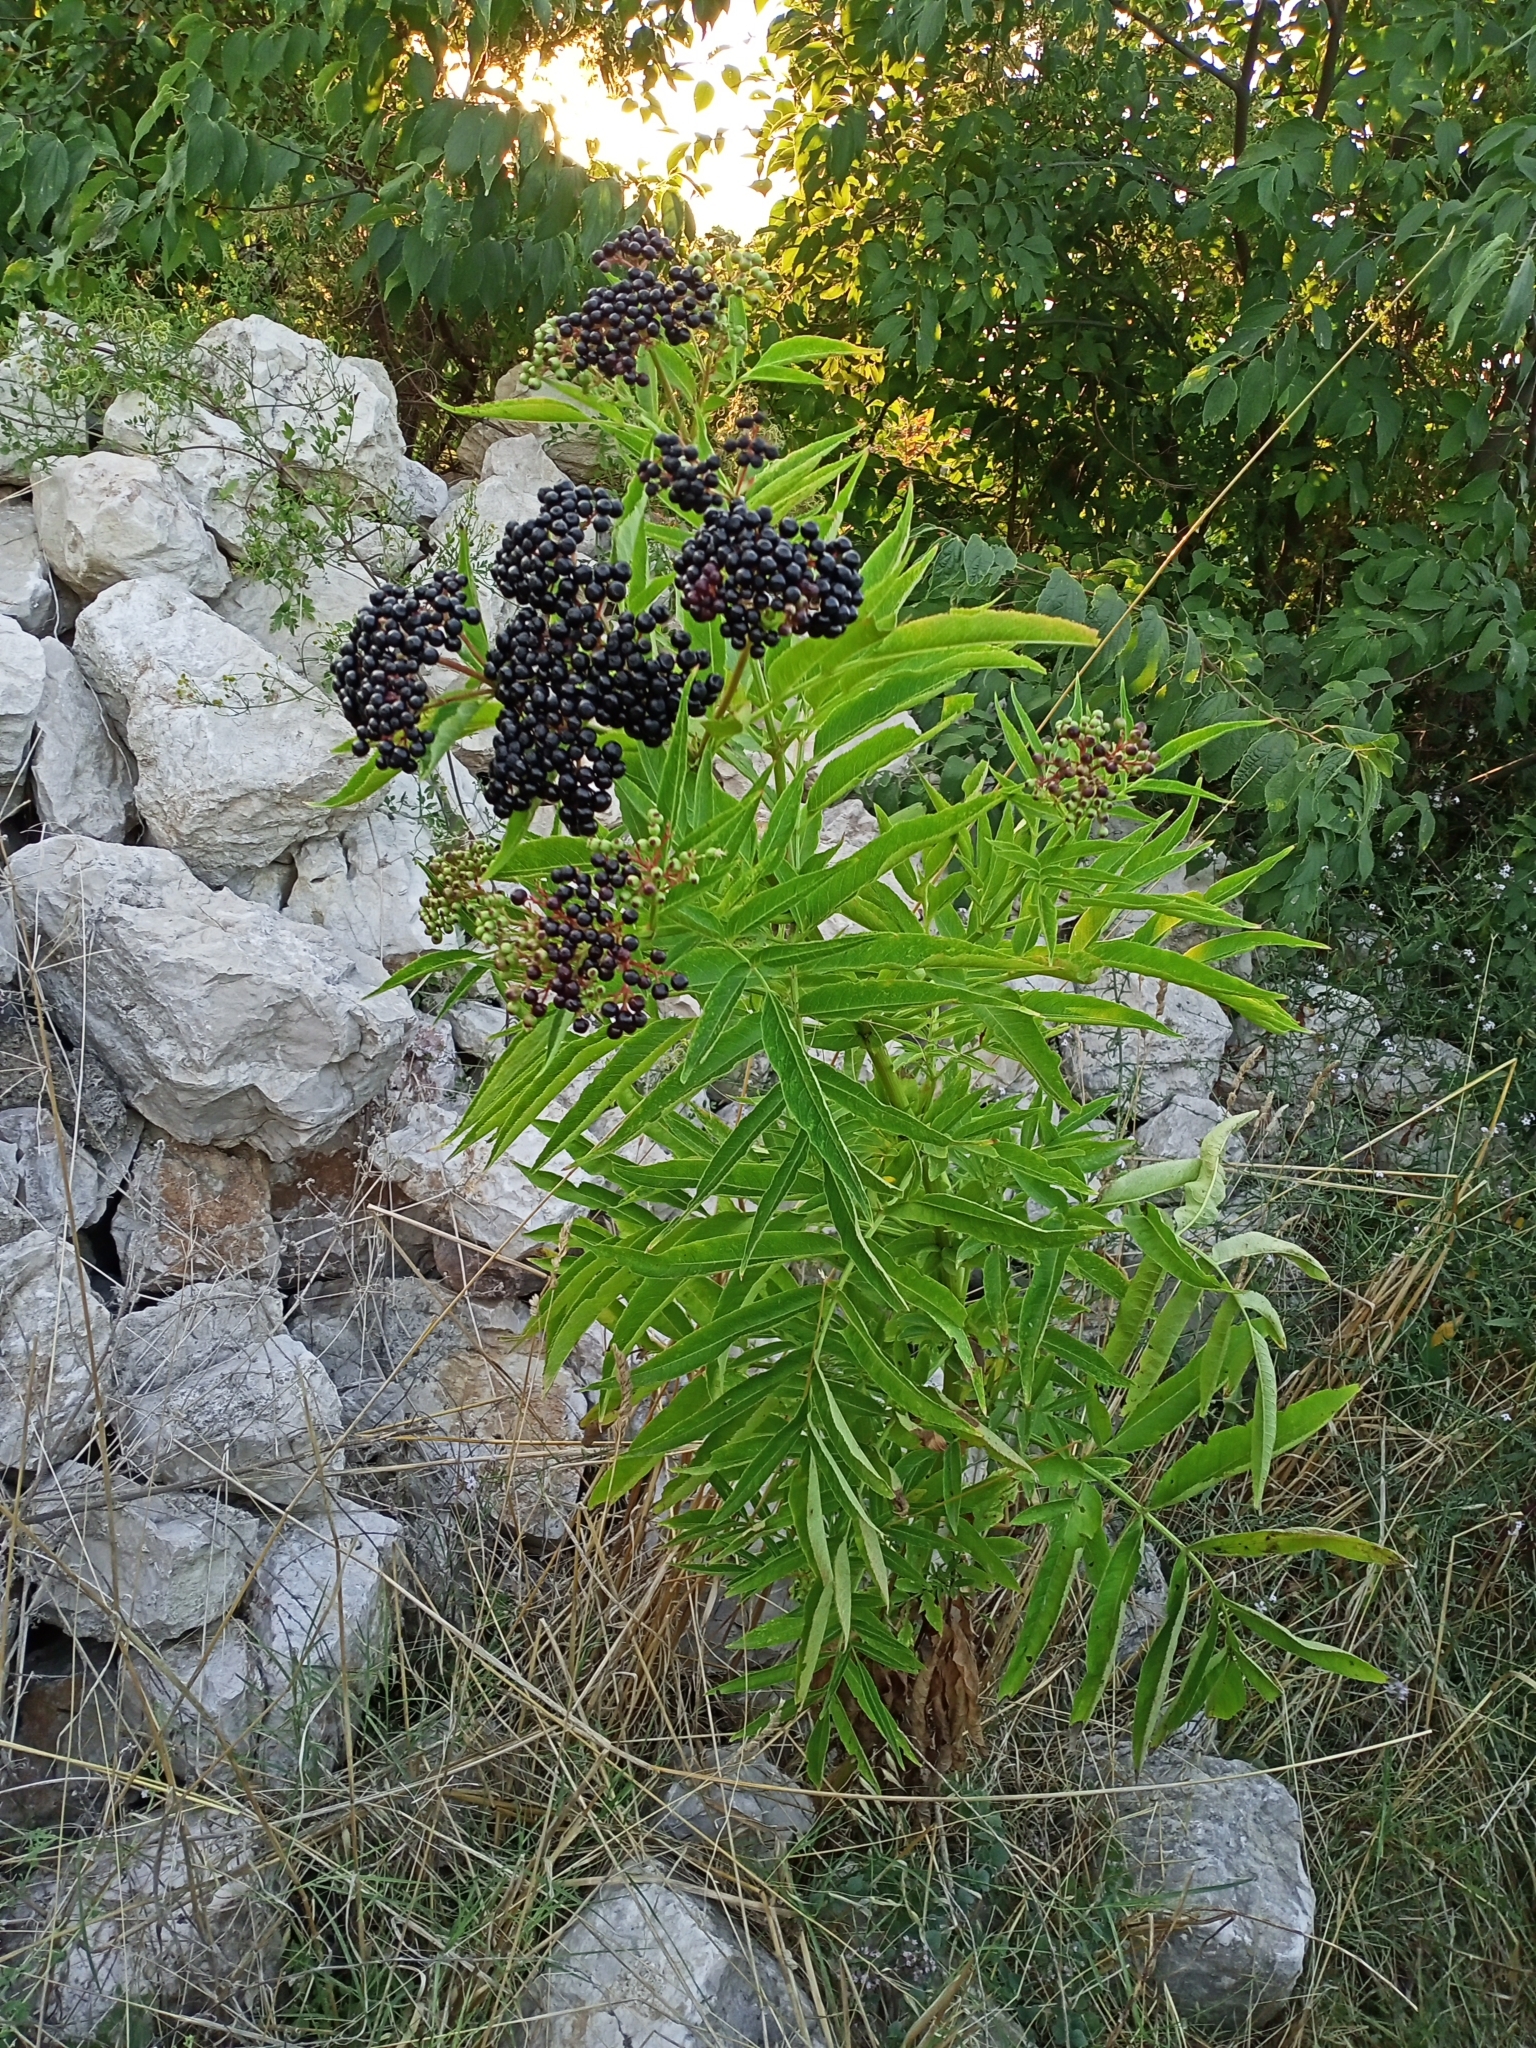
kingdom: Plantae
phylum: Tracheophyta
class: Magnoliopsida
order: Dipsacales
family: Viburnaceae
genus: Sambucus
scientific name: Sambucus ebulus
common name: Dwarf elder
